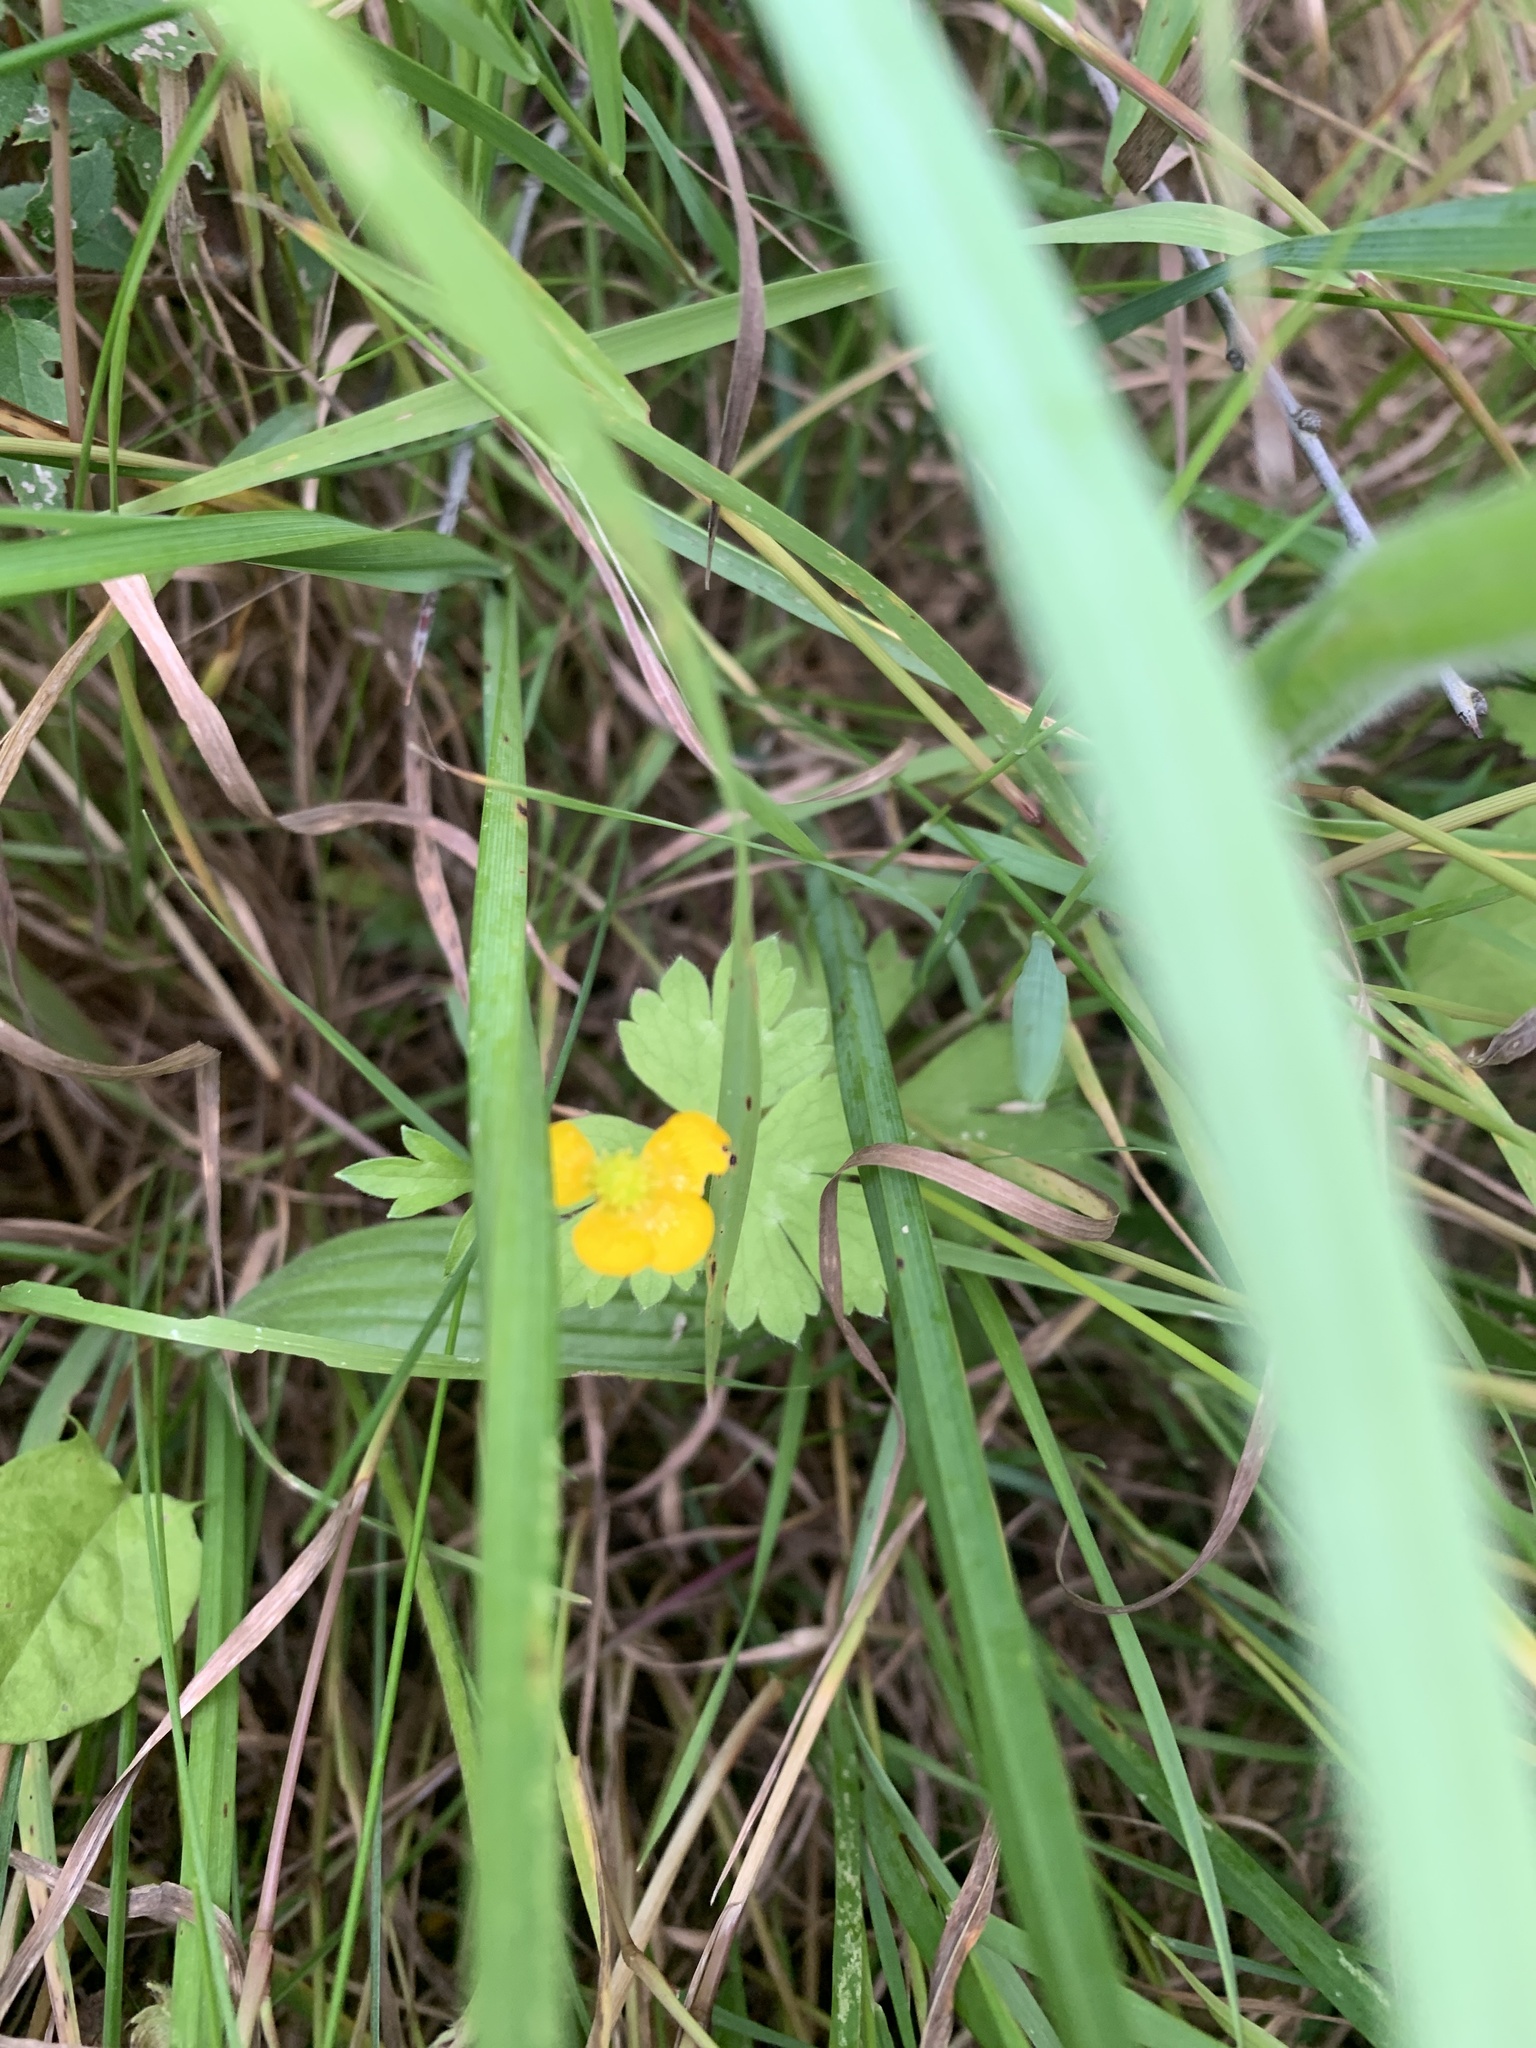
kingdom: Plantae
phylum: Tracheophyta
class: Magnoliopsida
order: Ranunculales
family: Ranunculaceae
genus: Ranunculus
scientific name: Ranunculus repens
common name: Creeping buttercup
